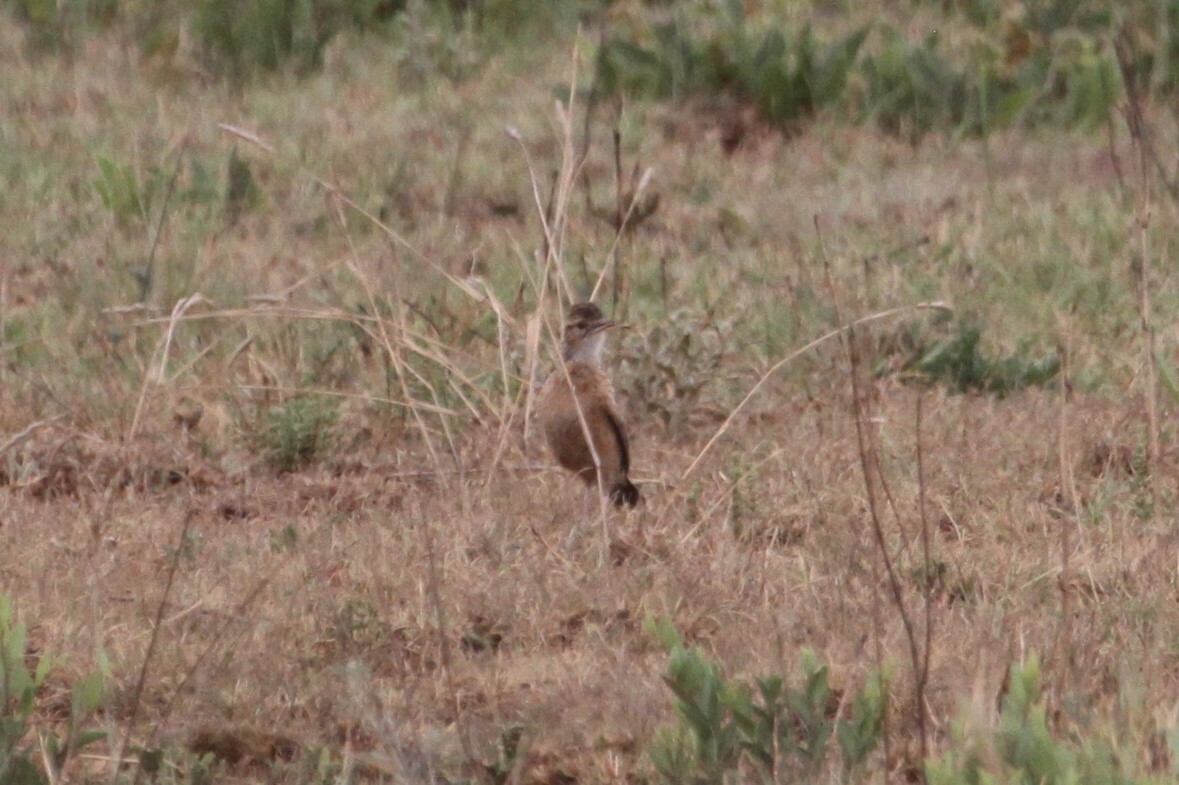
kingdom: Animalia
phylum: Chordata
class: Aves
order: Passeriformes
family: Alaudidae
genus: Chersomanes
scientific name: Chersomanes albofasciata
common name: Spike-heeled lark
